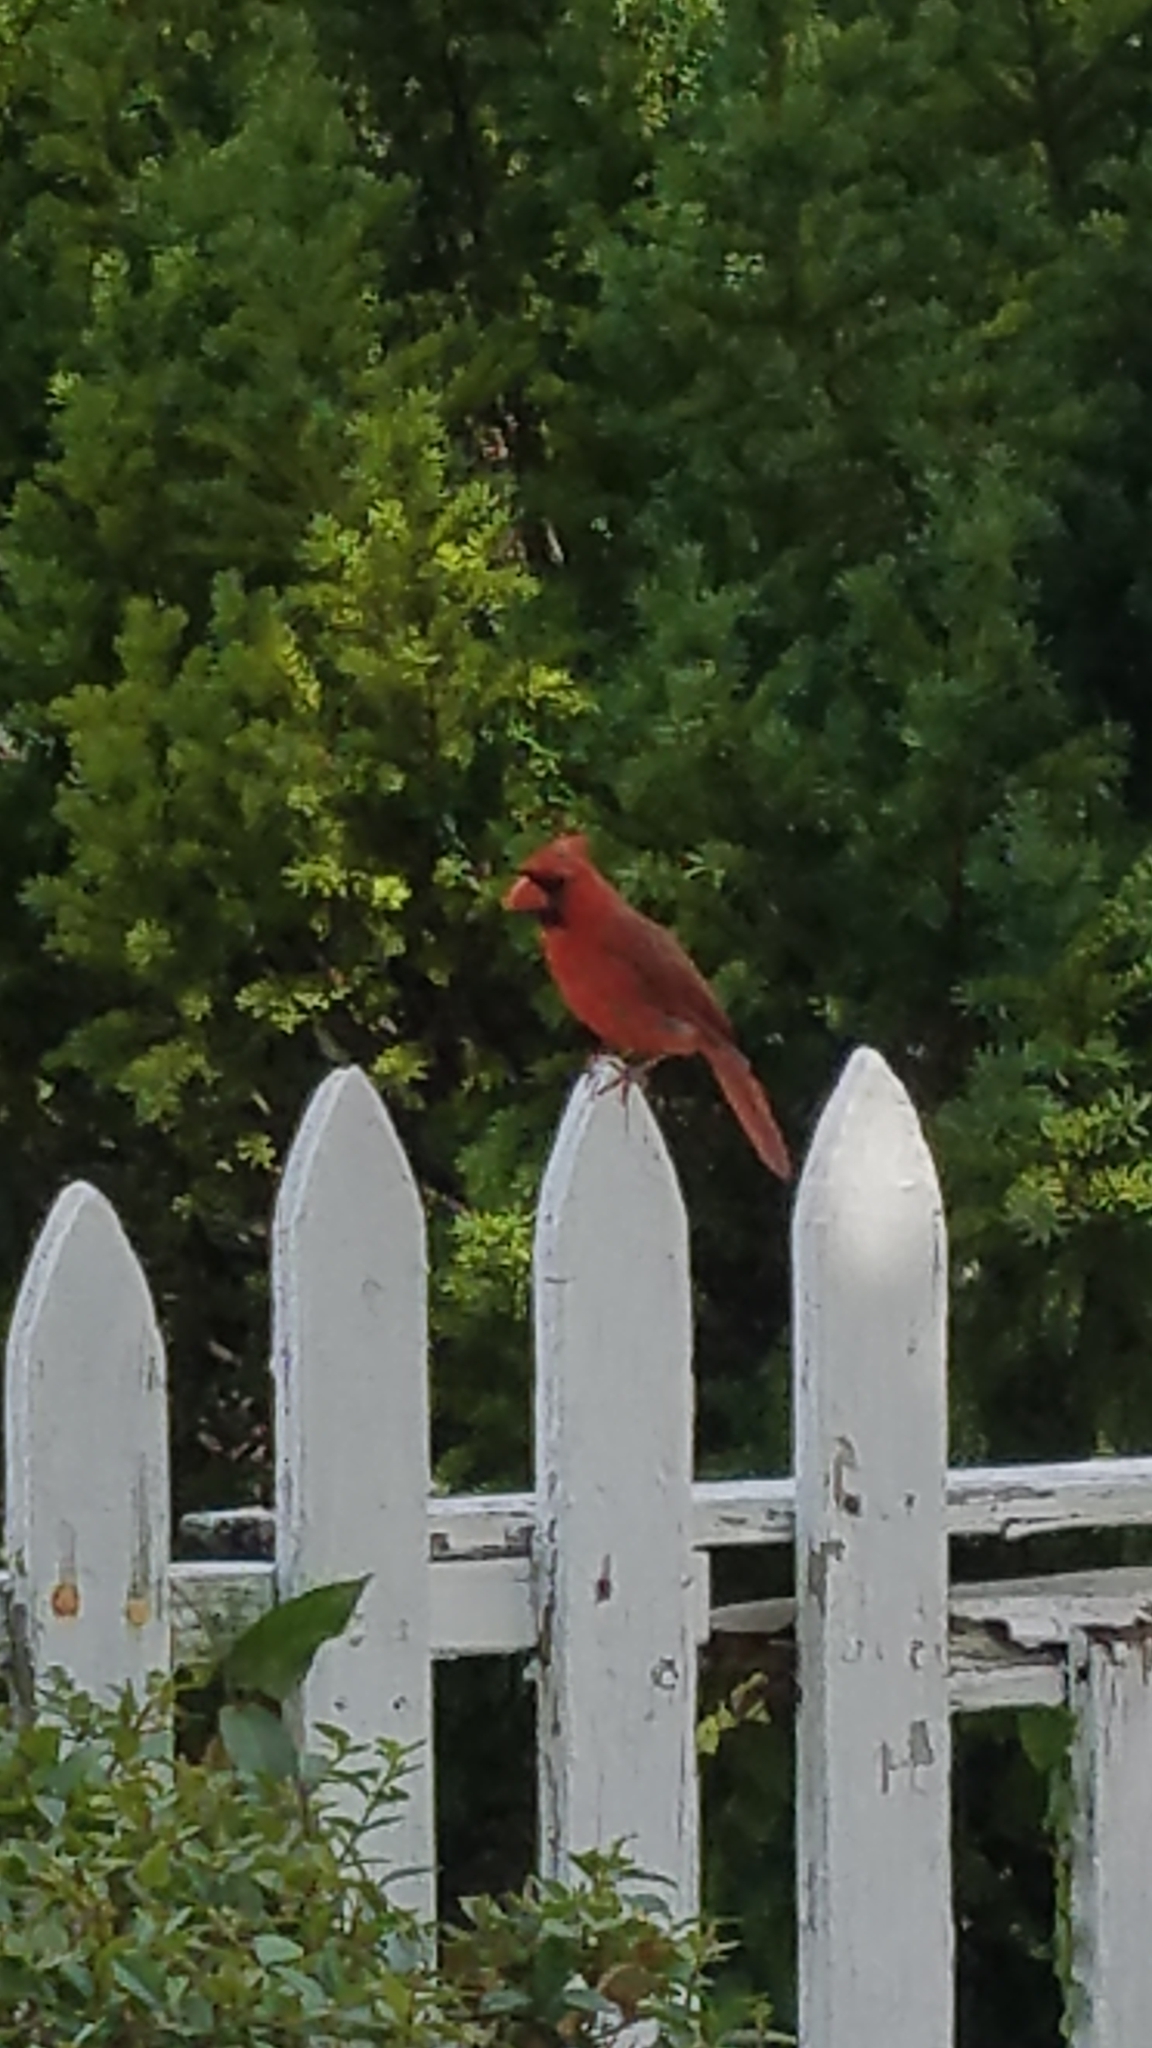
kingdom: Animalia
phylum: Chordata
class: Aves
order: Passeriformes
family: Cardinalidae
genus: Cardinalis
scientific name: Cardinalis cardinalis
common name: Northern cardinal
